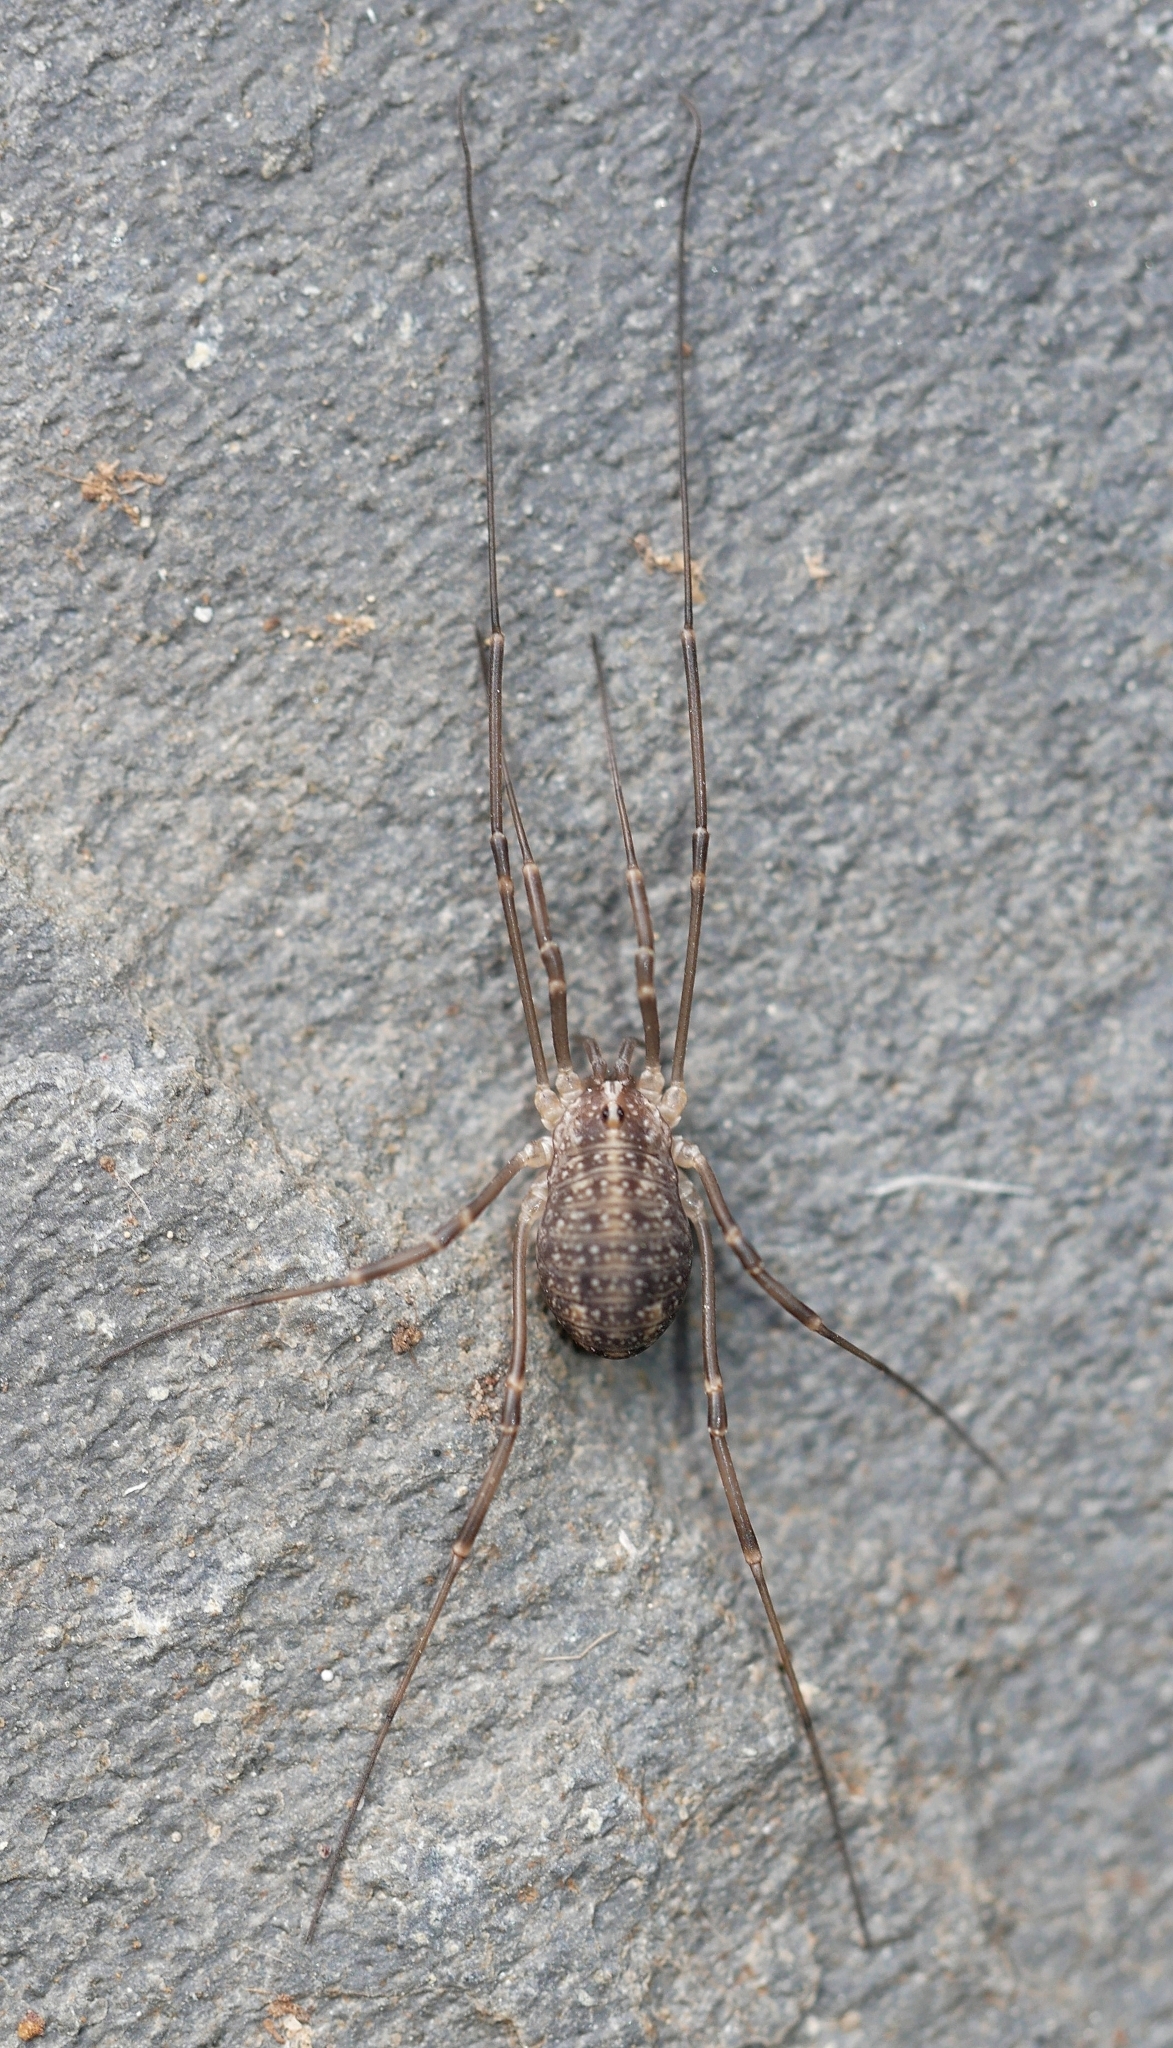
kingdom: Animalia
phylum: Arthropoda
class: Arachnida
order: Opiliones
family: Sclerosomatidae
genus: Togwoteeus
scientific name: Togwoteeus biceps
